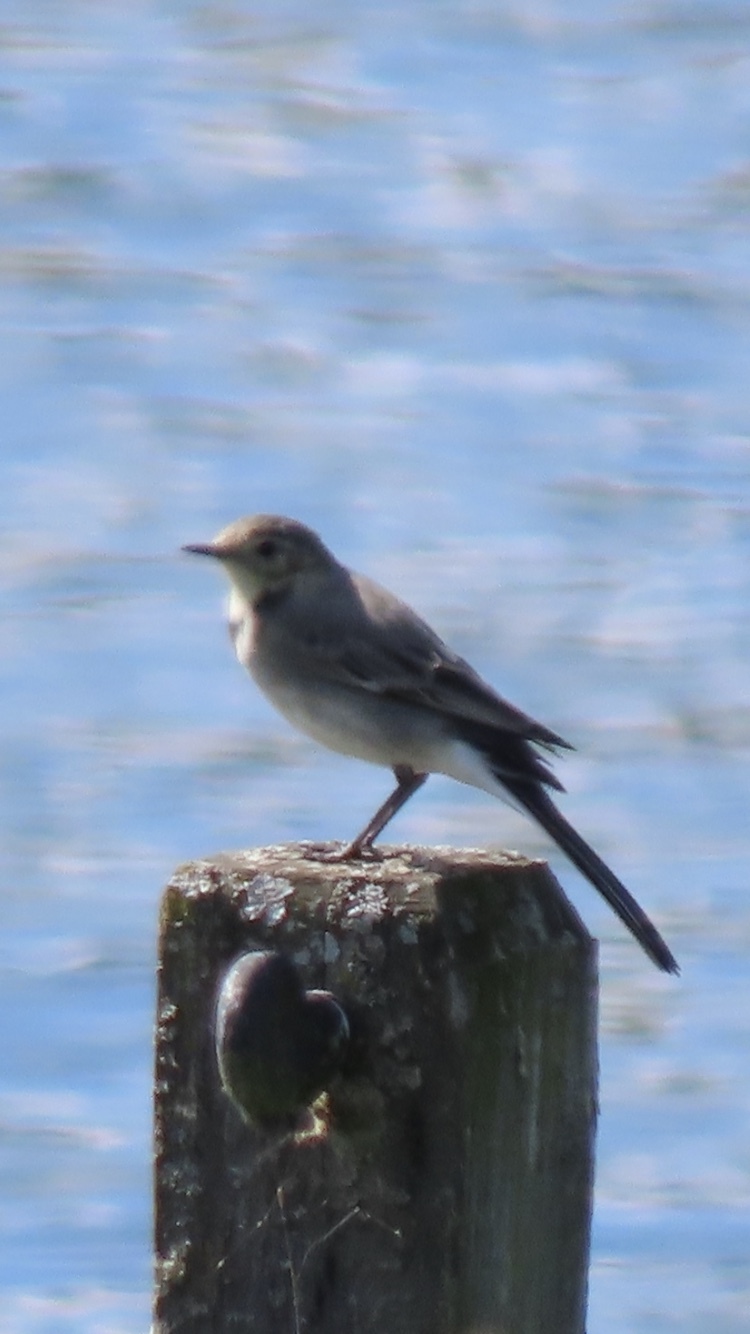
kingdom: Animalia
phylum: Chordata
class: Aves
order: Passeriformes
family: Motacillidae
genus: Motacilla
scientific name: Motacilla alba
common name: White wagtail
